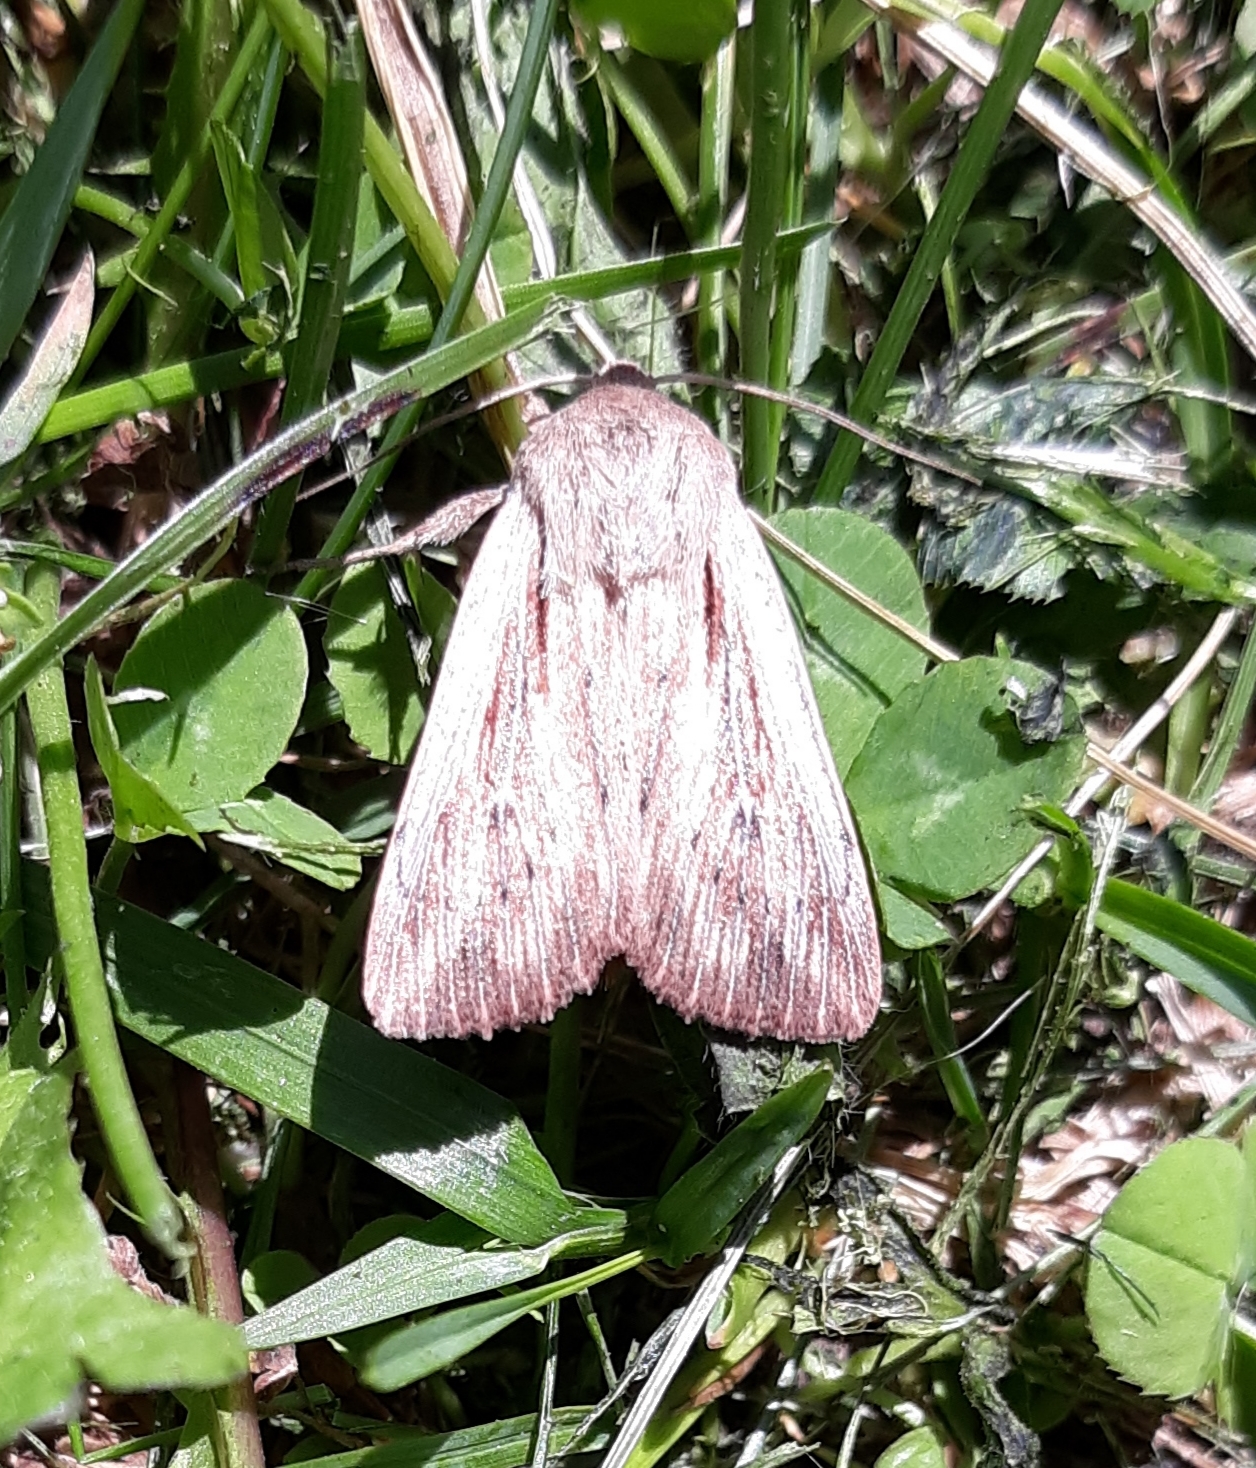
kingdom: Animalia
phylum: Arthropoda
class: Insecta
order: Lepidoptera
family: Noctuidae
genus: Leucania
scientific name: Leucania insueta
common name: Heterodox wainscot moth
